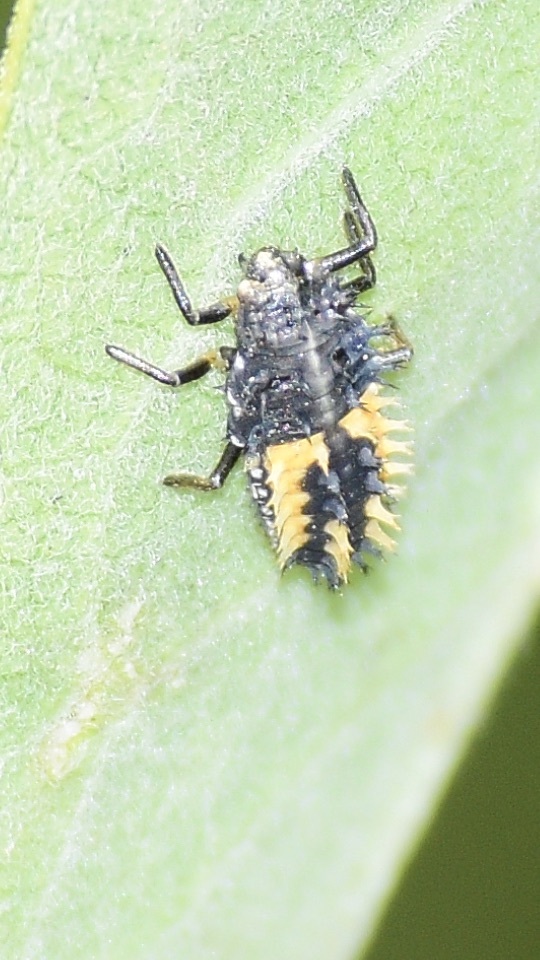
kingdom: Animalia
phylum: Arthropoda
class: Insecta
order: Coleoptera
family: Coccinellidae
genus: Harmonia
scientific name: Harmonia axyridis
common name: Harlequin ladybird
